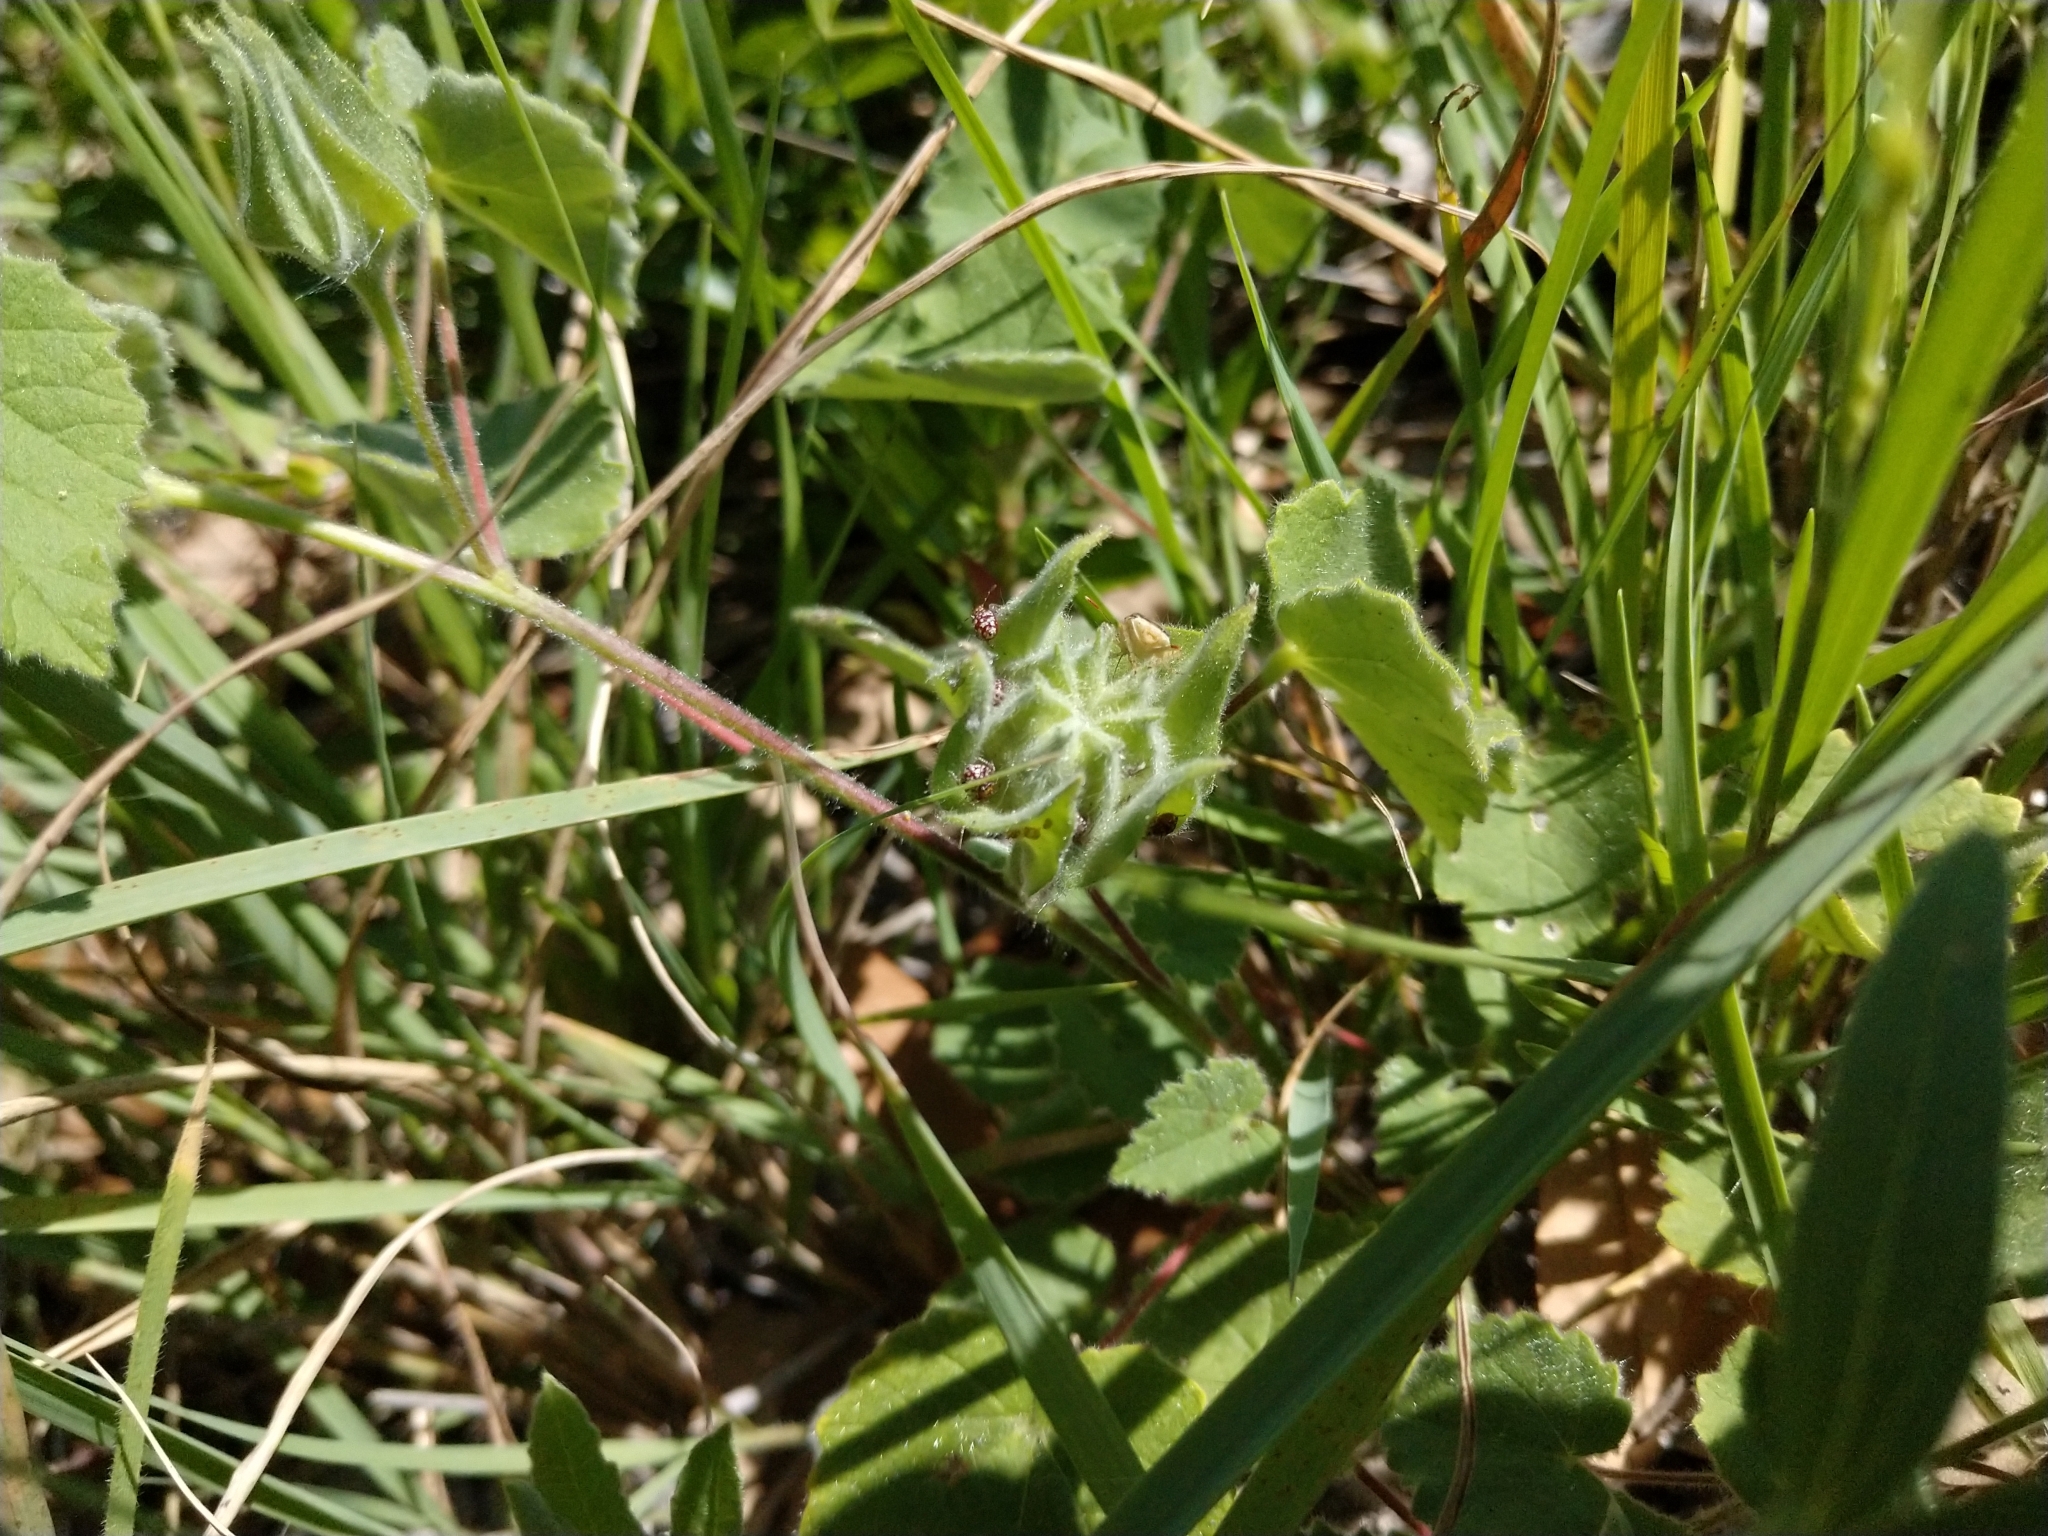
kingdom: Plantae
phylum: Tracheophyta
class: Magnoliopsida
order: Malvales
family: Malvaceae
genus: Abutilon
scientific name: Abutilon wrightii
